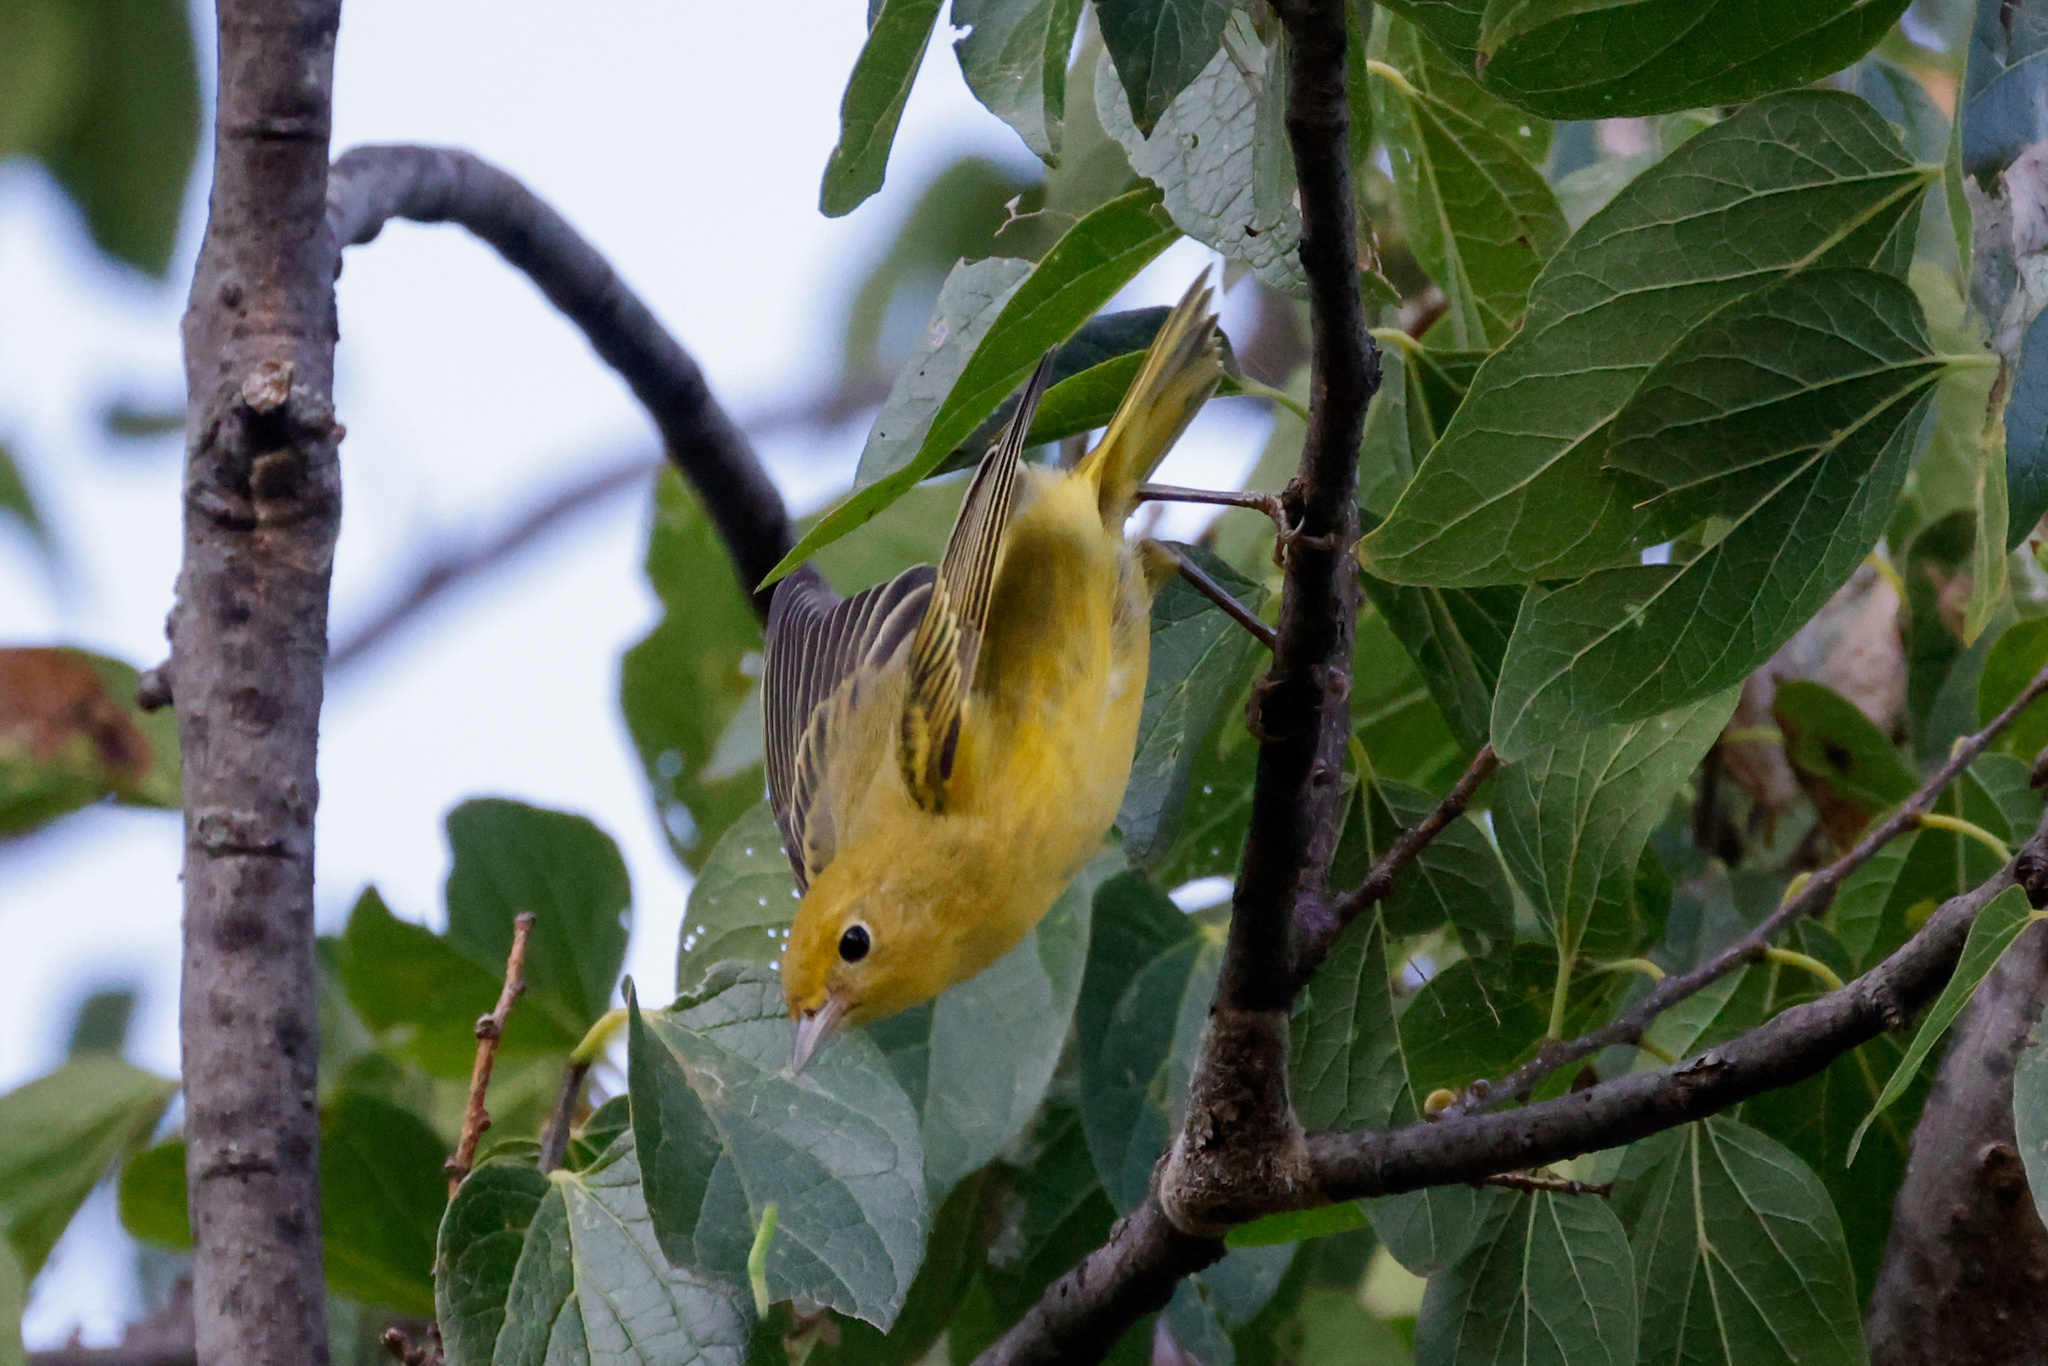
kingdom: Animalia
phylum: Chordata
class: Aves
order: Passeriformes
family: Parulidae
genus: Setophaga
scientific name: Setophaga petechia
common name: Yellow warbler
